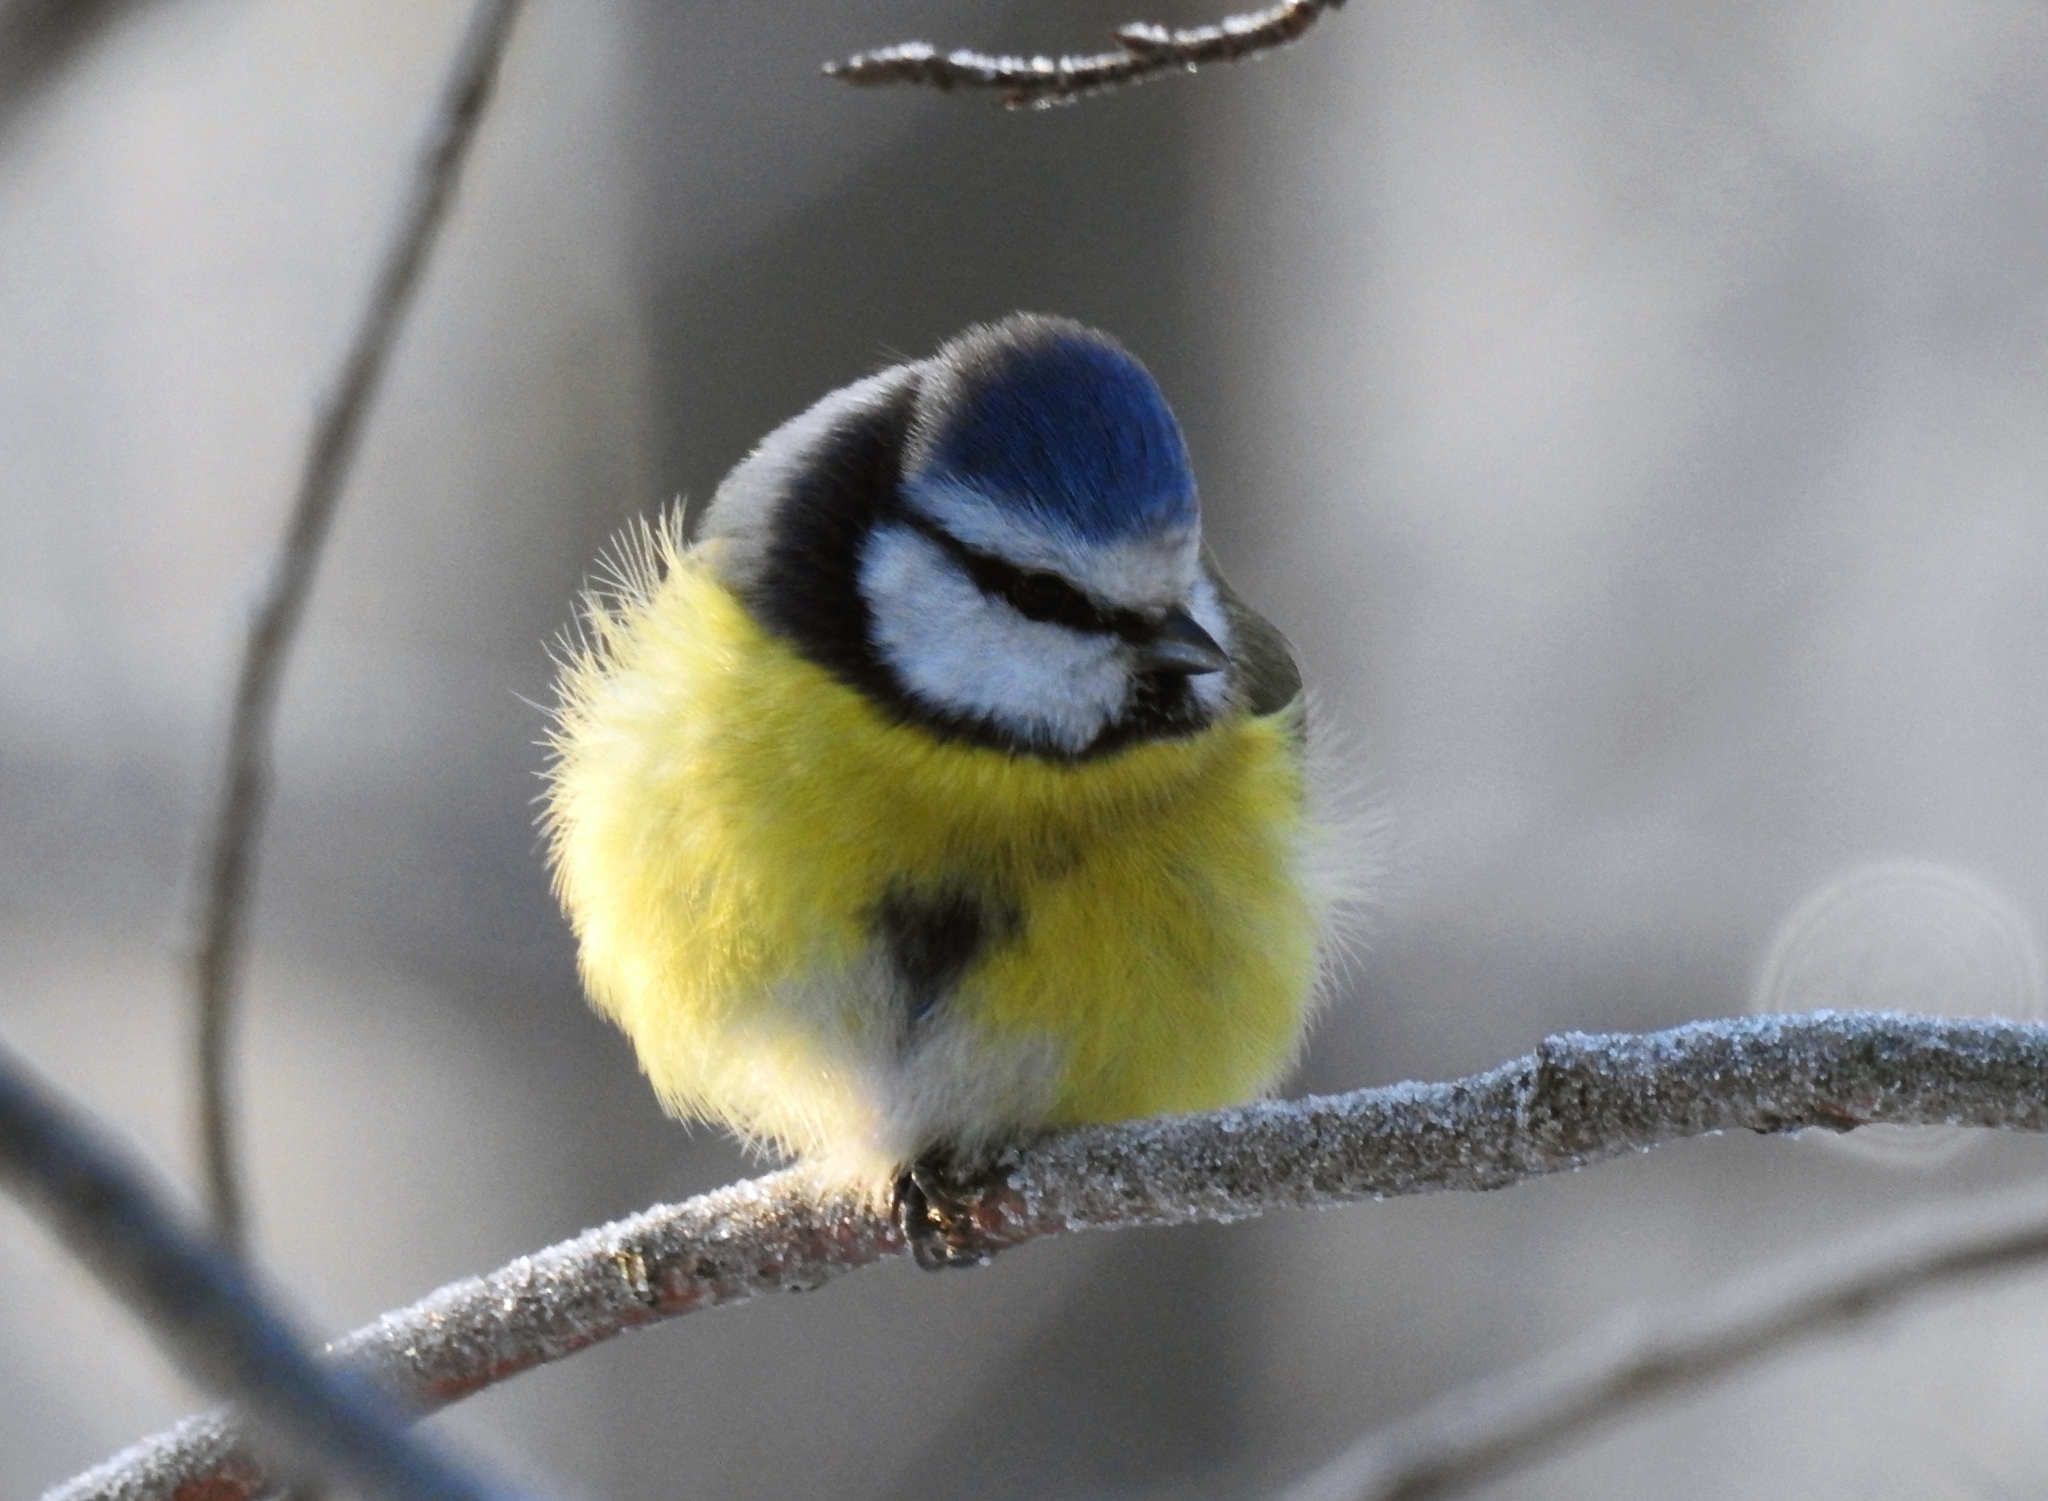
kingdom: Animalia
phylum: Chordata
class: Aves
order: Passeriformes
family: Paridae
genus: Cyanistes
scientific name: Cyanistes caeruleus
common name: Eurasian blue tit
